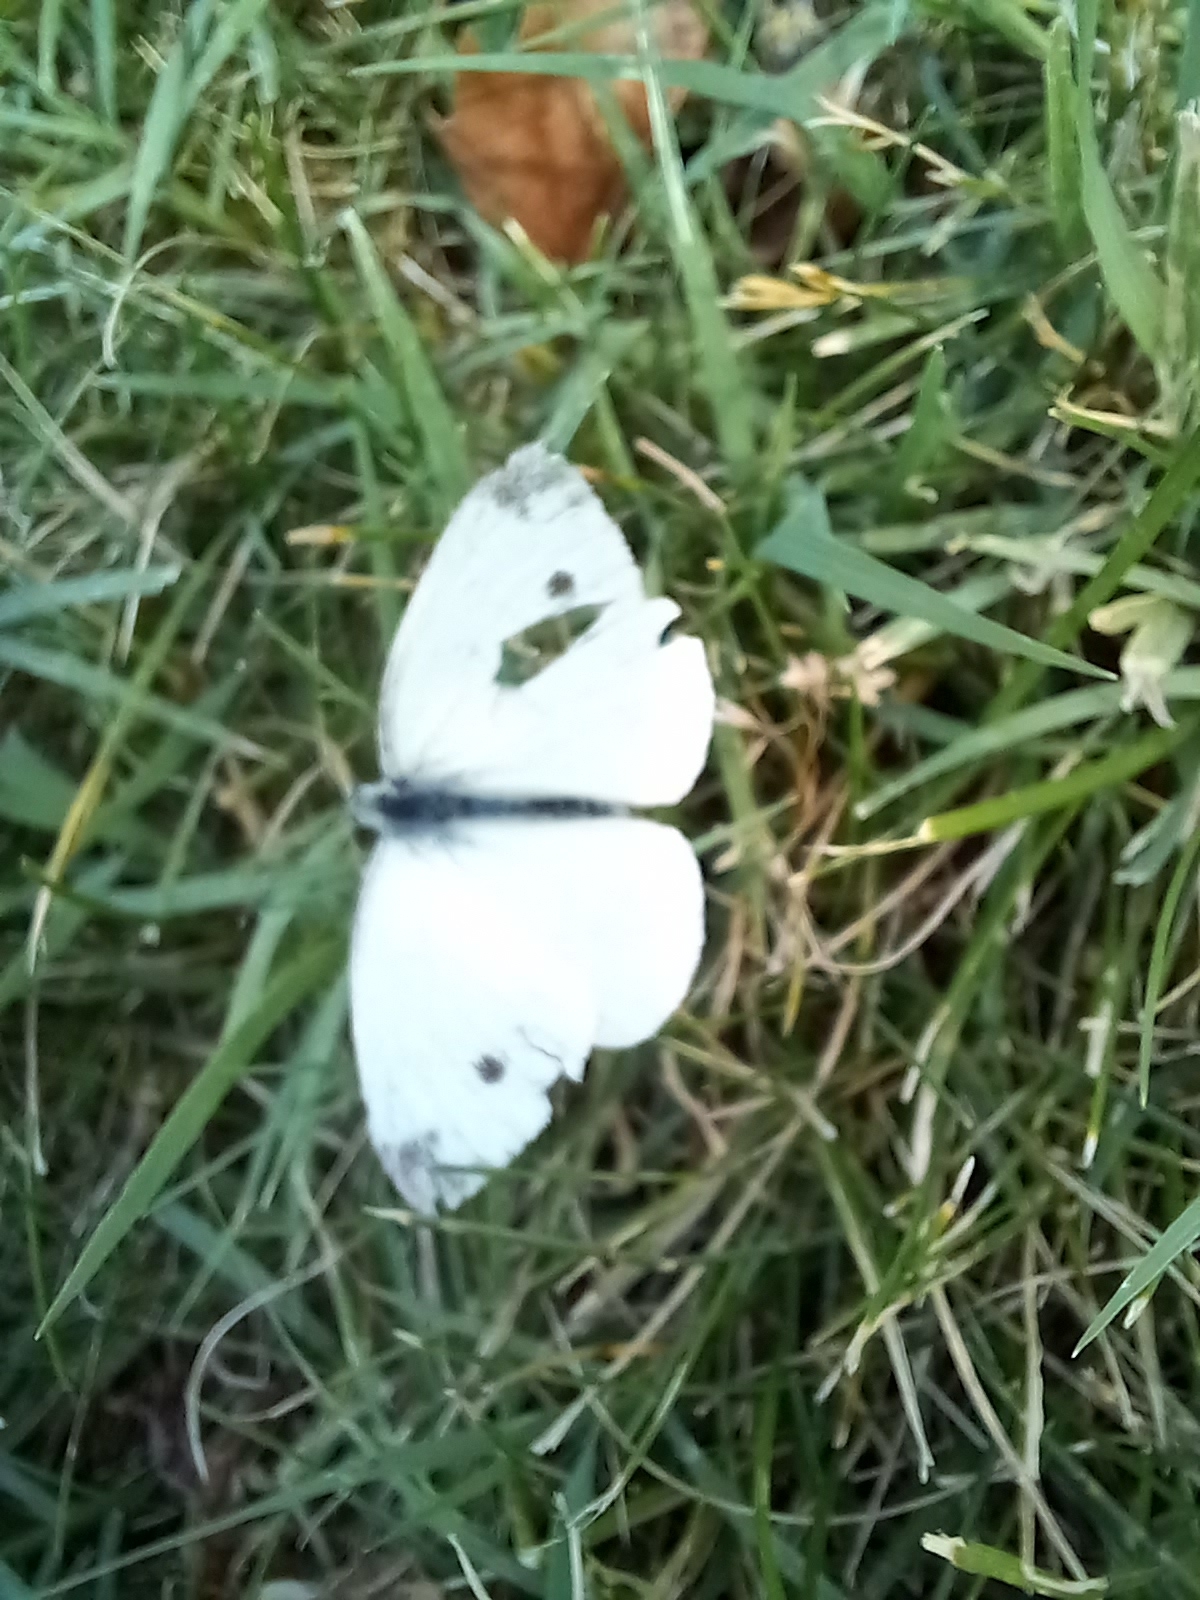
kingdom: Animalia
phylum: Arthropoda
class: Insecta
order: Lepidoptera
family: Pieridae
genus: Pieris
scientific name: Pieris rapae
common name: Small white
